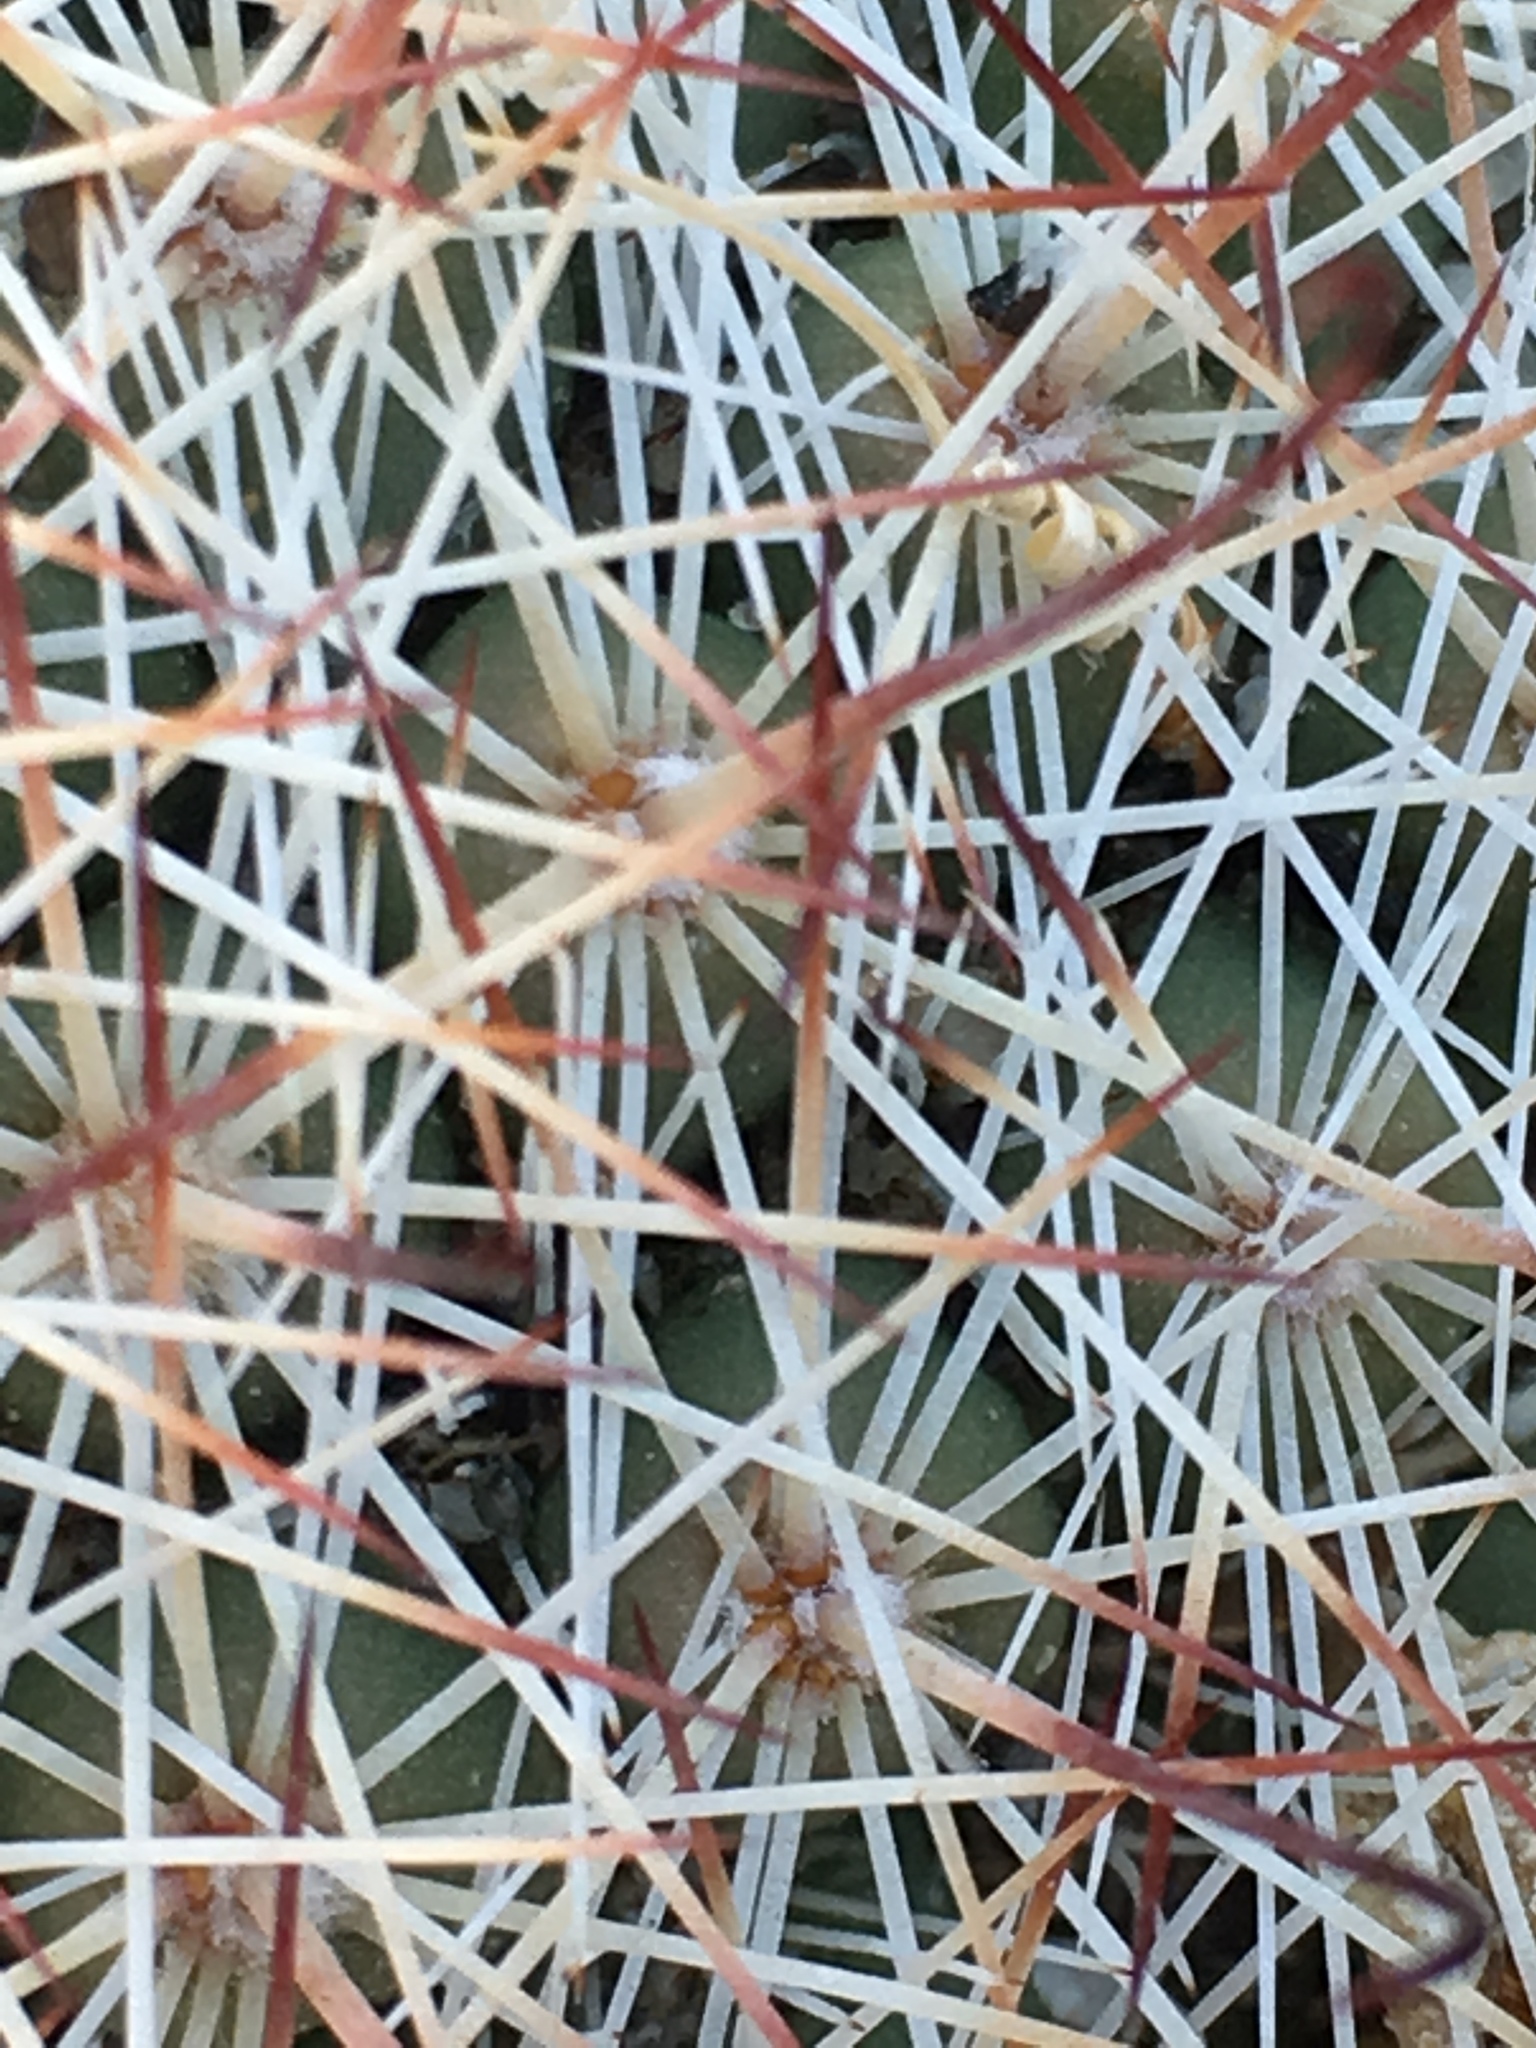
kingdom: Plantae
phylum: Tracheophyta
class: Magnoliopsida
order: Caryophyllales
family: Cactaceae
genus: Cochemiea
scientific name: Cochemiea dioica
